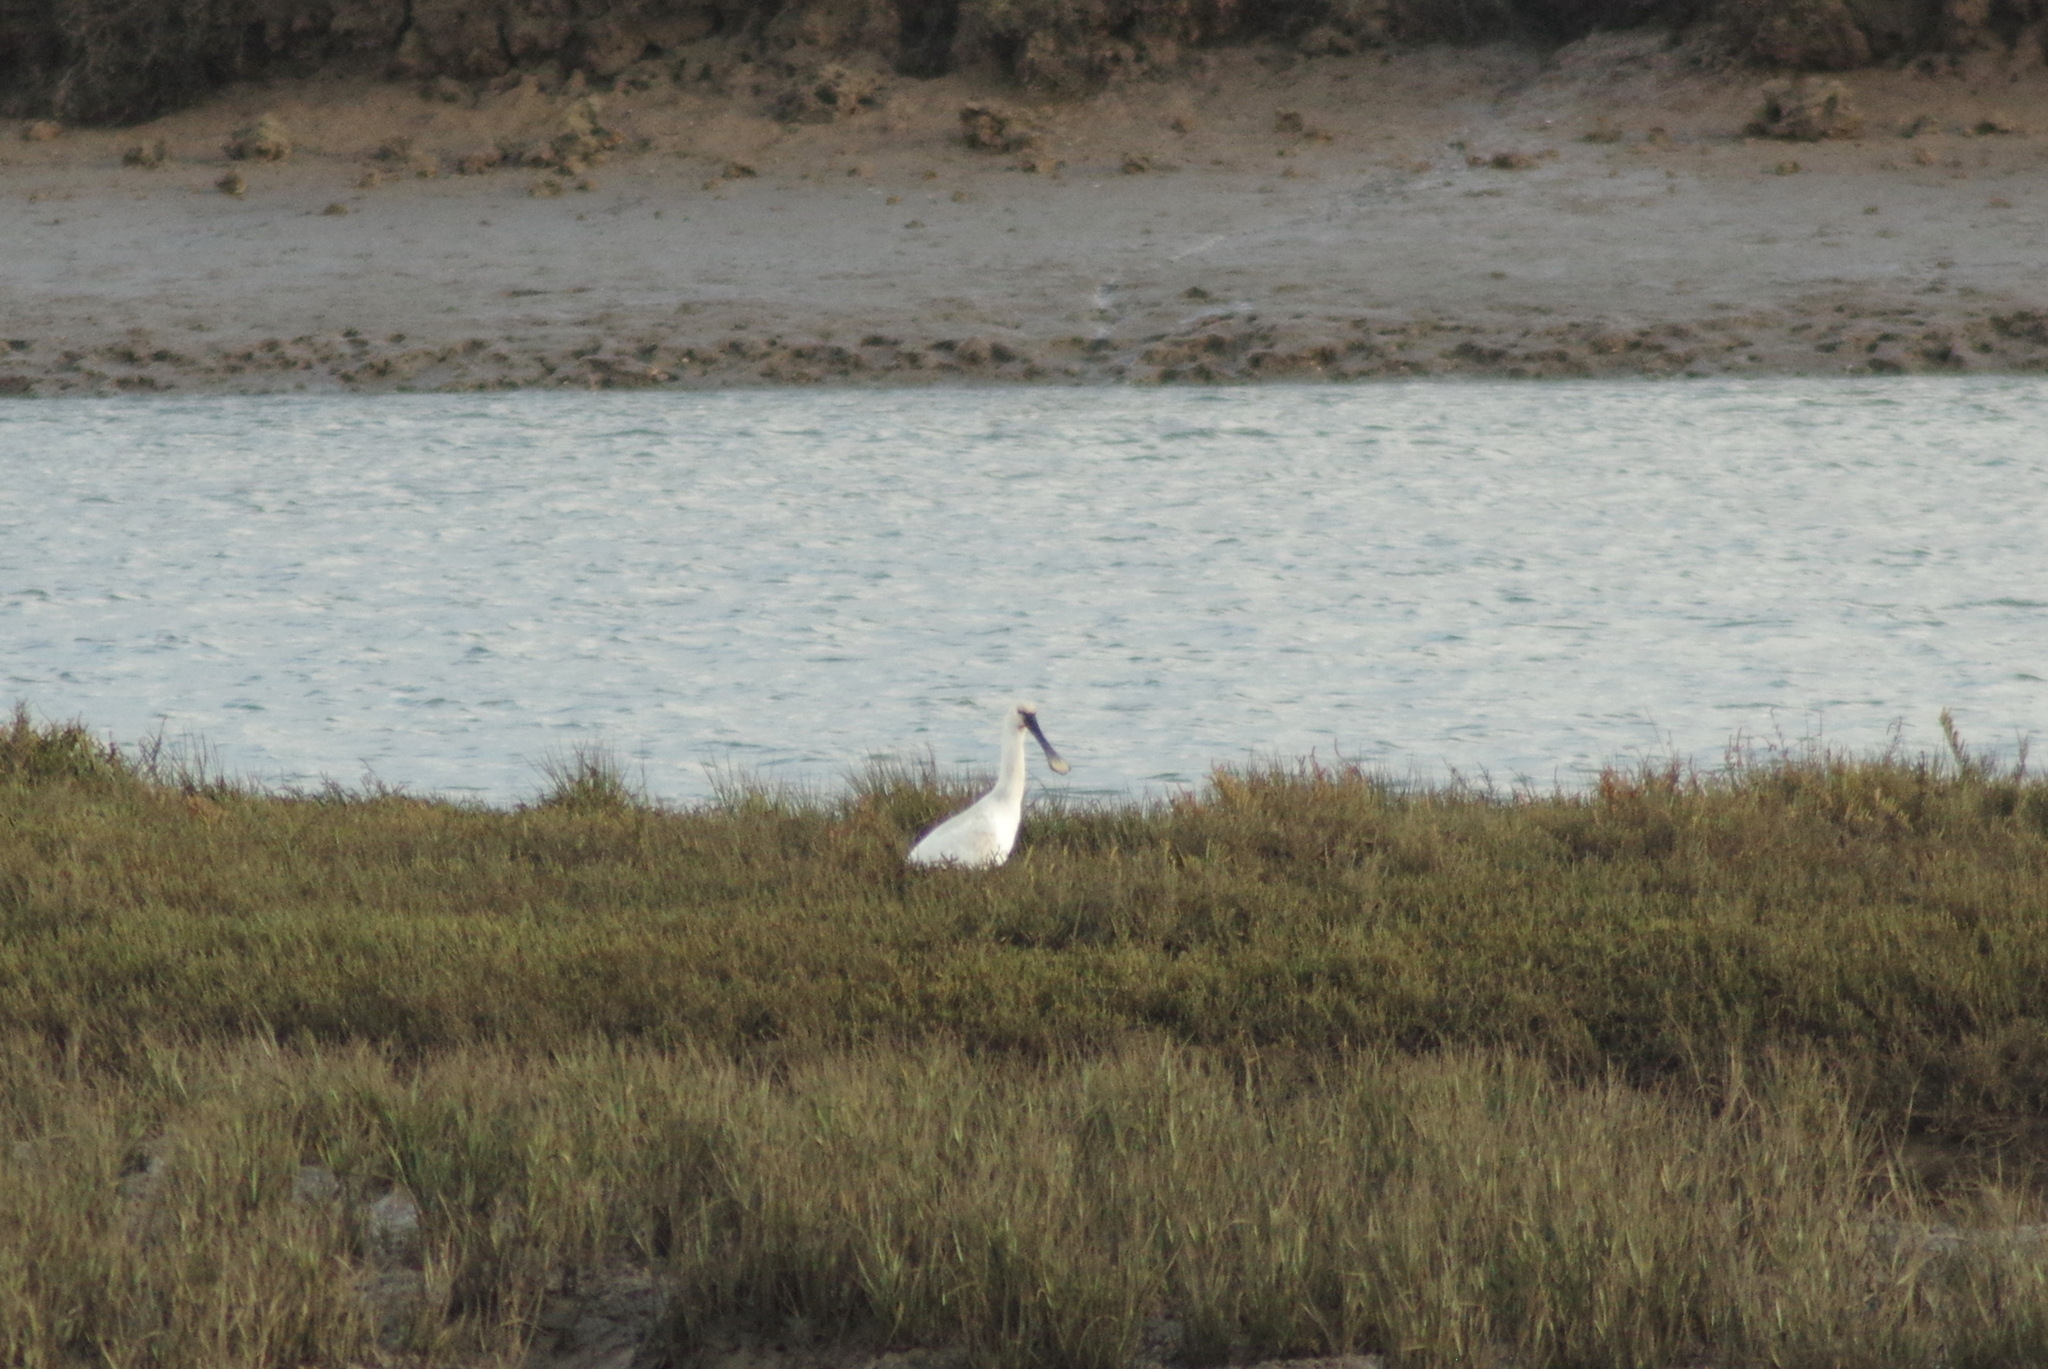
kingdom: Animalia
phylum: Chordata
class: Aves
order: Pelecaniformes
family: Threskiornithidae
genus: Platalea
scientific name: Platalea leucorodia
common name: Eurasian spoonbill
